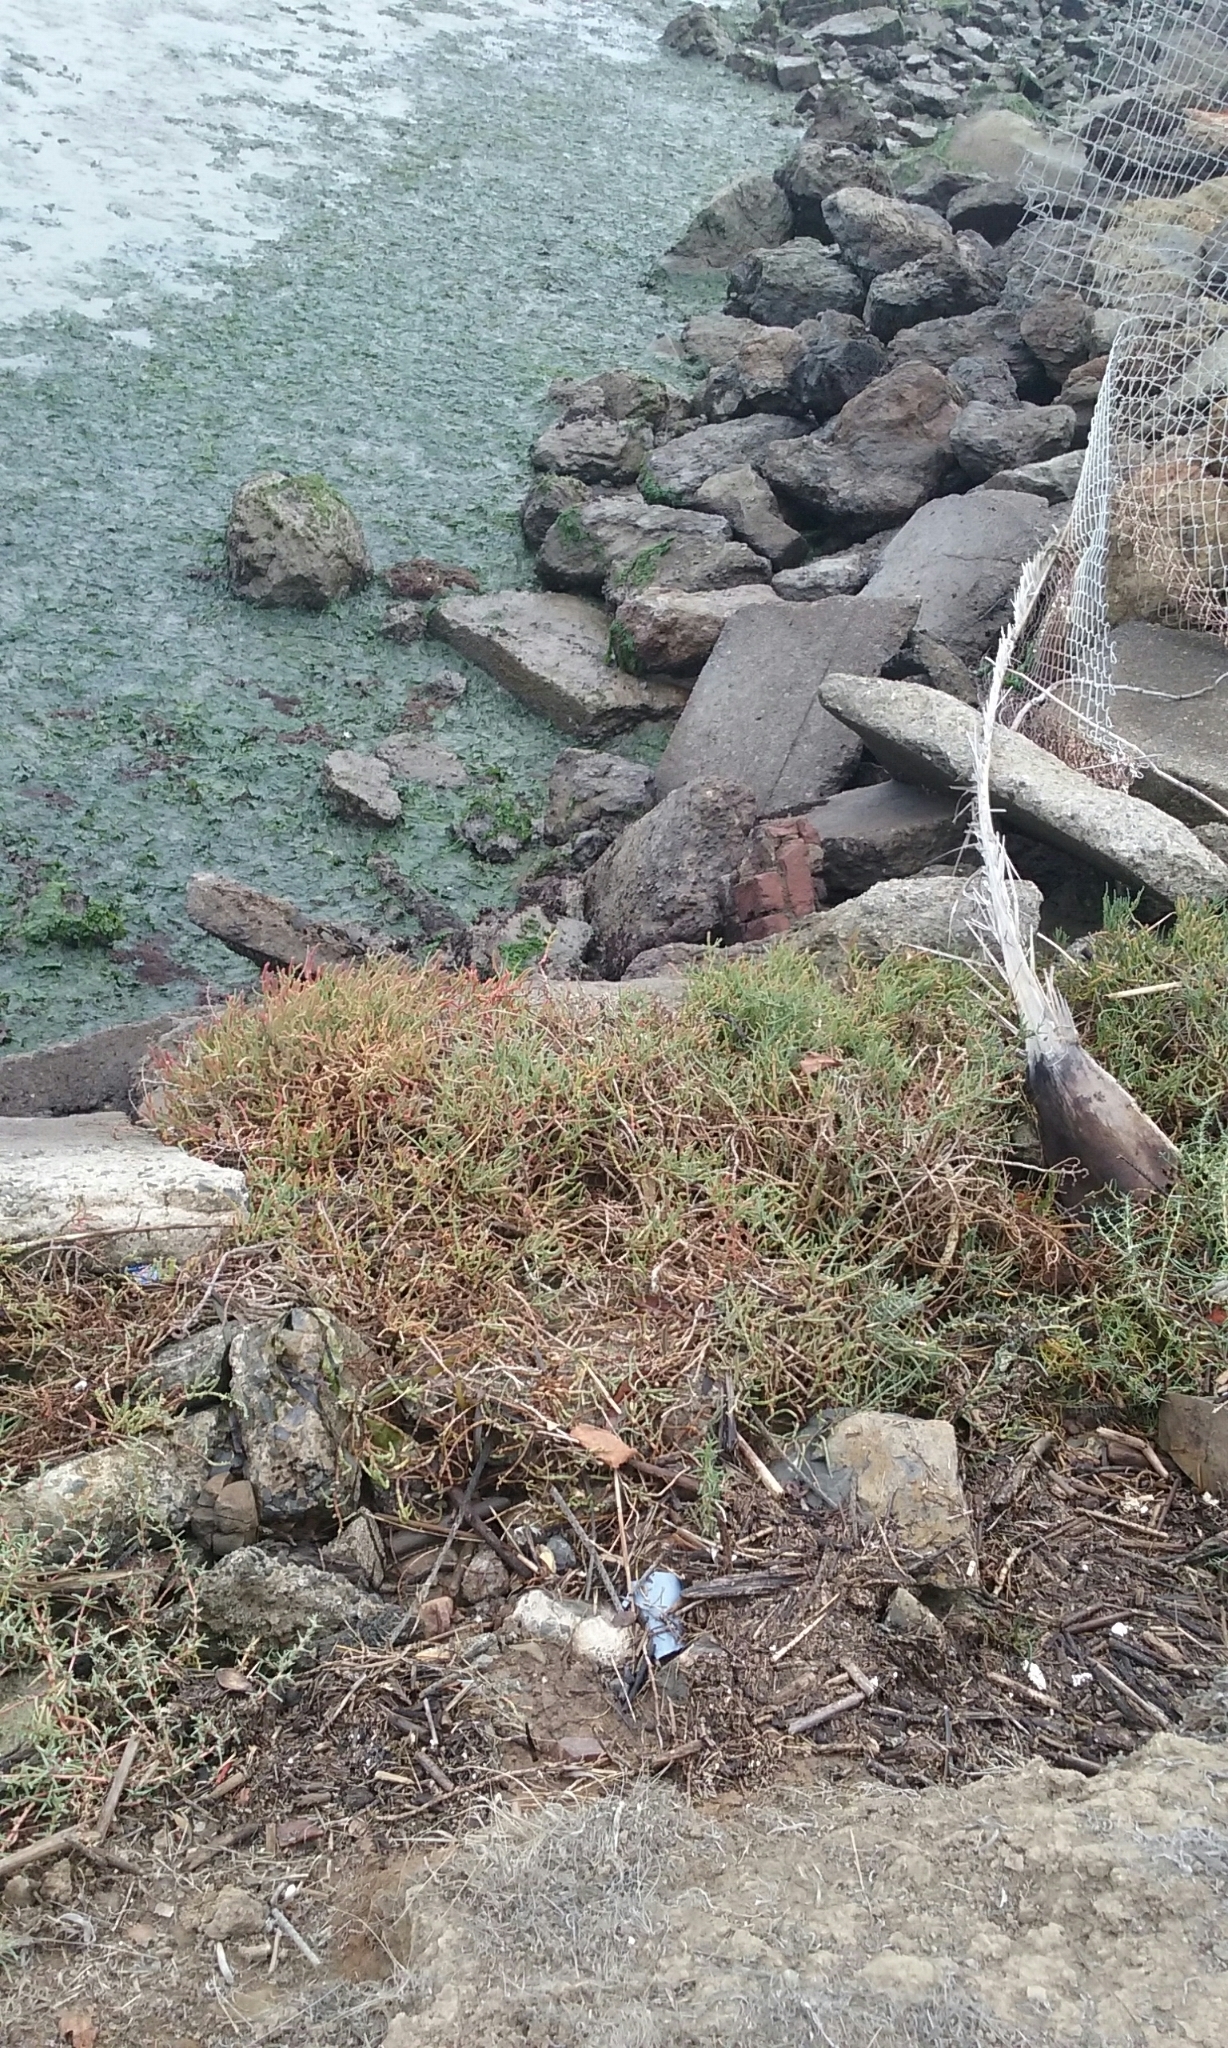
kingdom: Plantae
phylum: Tracheophyta
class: Magnoliopsida
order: Caryophyllales
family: Amaranthaceae
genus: Salicornia
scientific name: Salicornia pacifica
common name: Pacific glasswort
